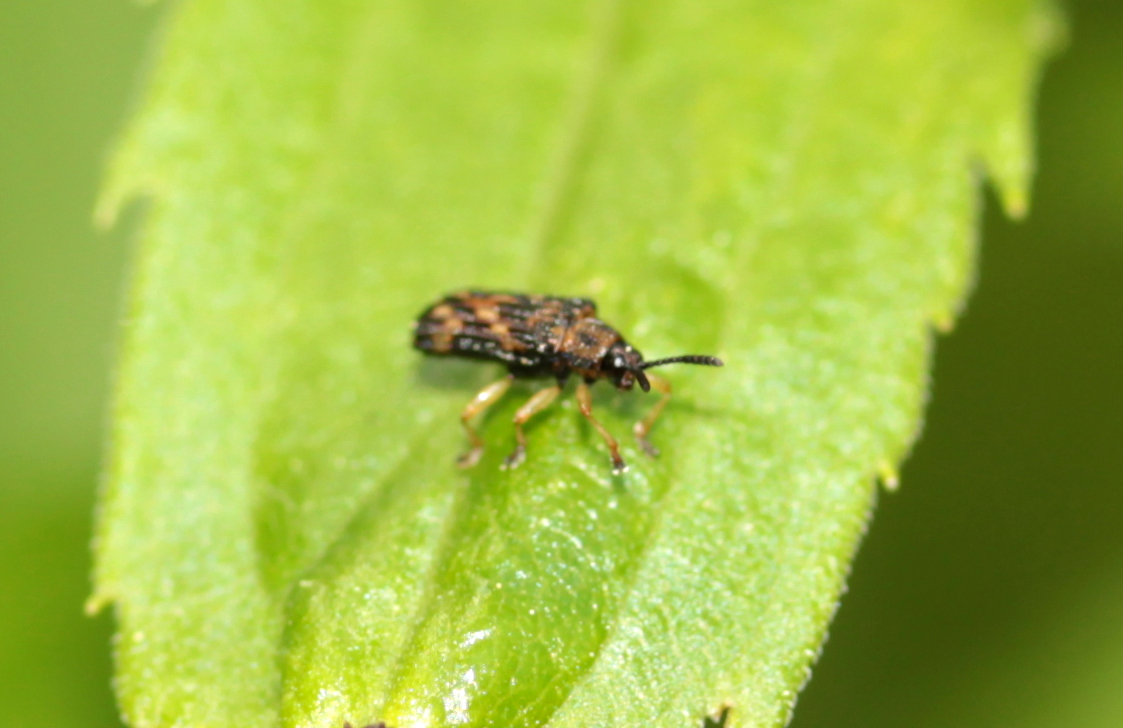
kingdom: Animalia
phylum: Arthropoda
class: Insecta
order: Coleoptera
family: Chrysomelidae
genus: Sumitrosis
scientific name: Sumitrosis inaequalis
